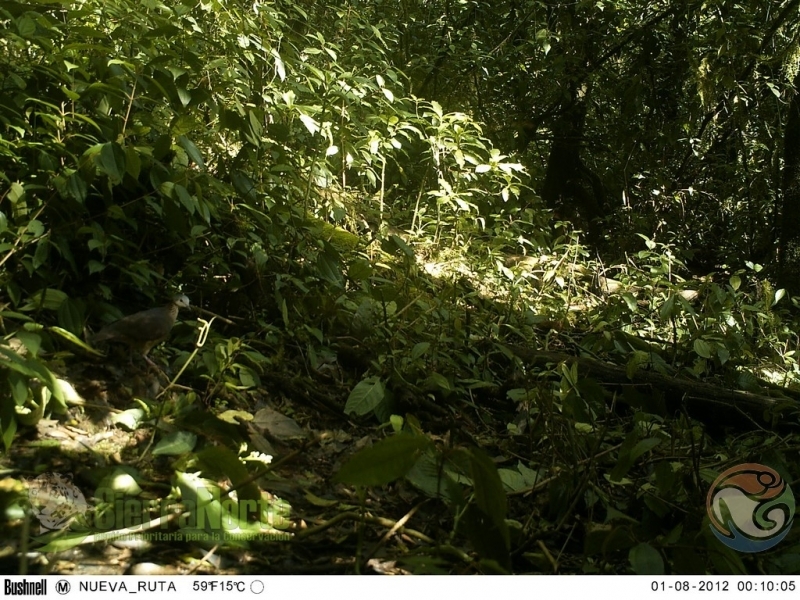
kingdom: Animalia
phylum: Chordata
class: Aves
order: Columbiformes
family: Columbidae
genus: Zentrygon
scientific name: Zentrygon albifacies
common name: White-faced quail-dove
